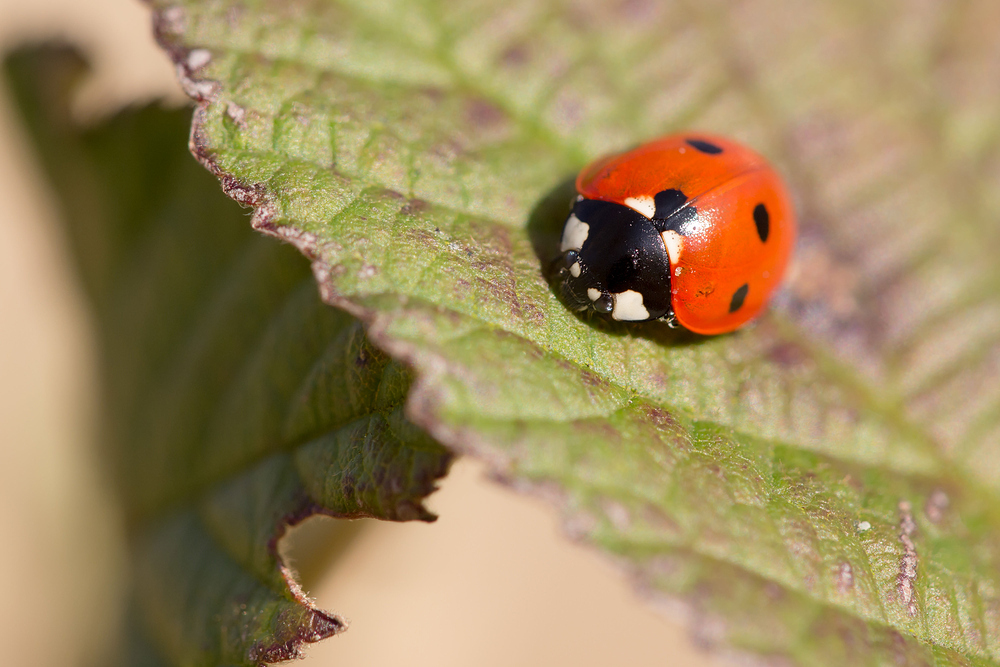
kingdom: Animalia
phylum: Arthropoda
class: Insecta
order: Coleoptera
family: Coccinellidae
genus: Coccinella
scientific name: Coccinella septempunctata
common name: Sevenspotted lady beetle
